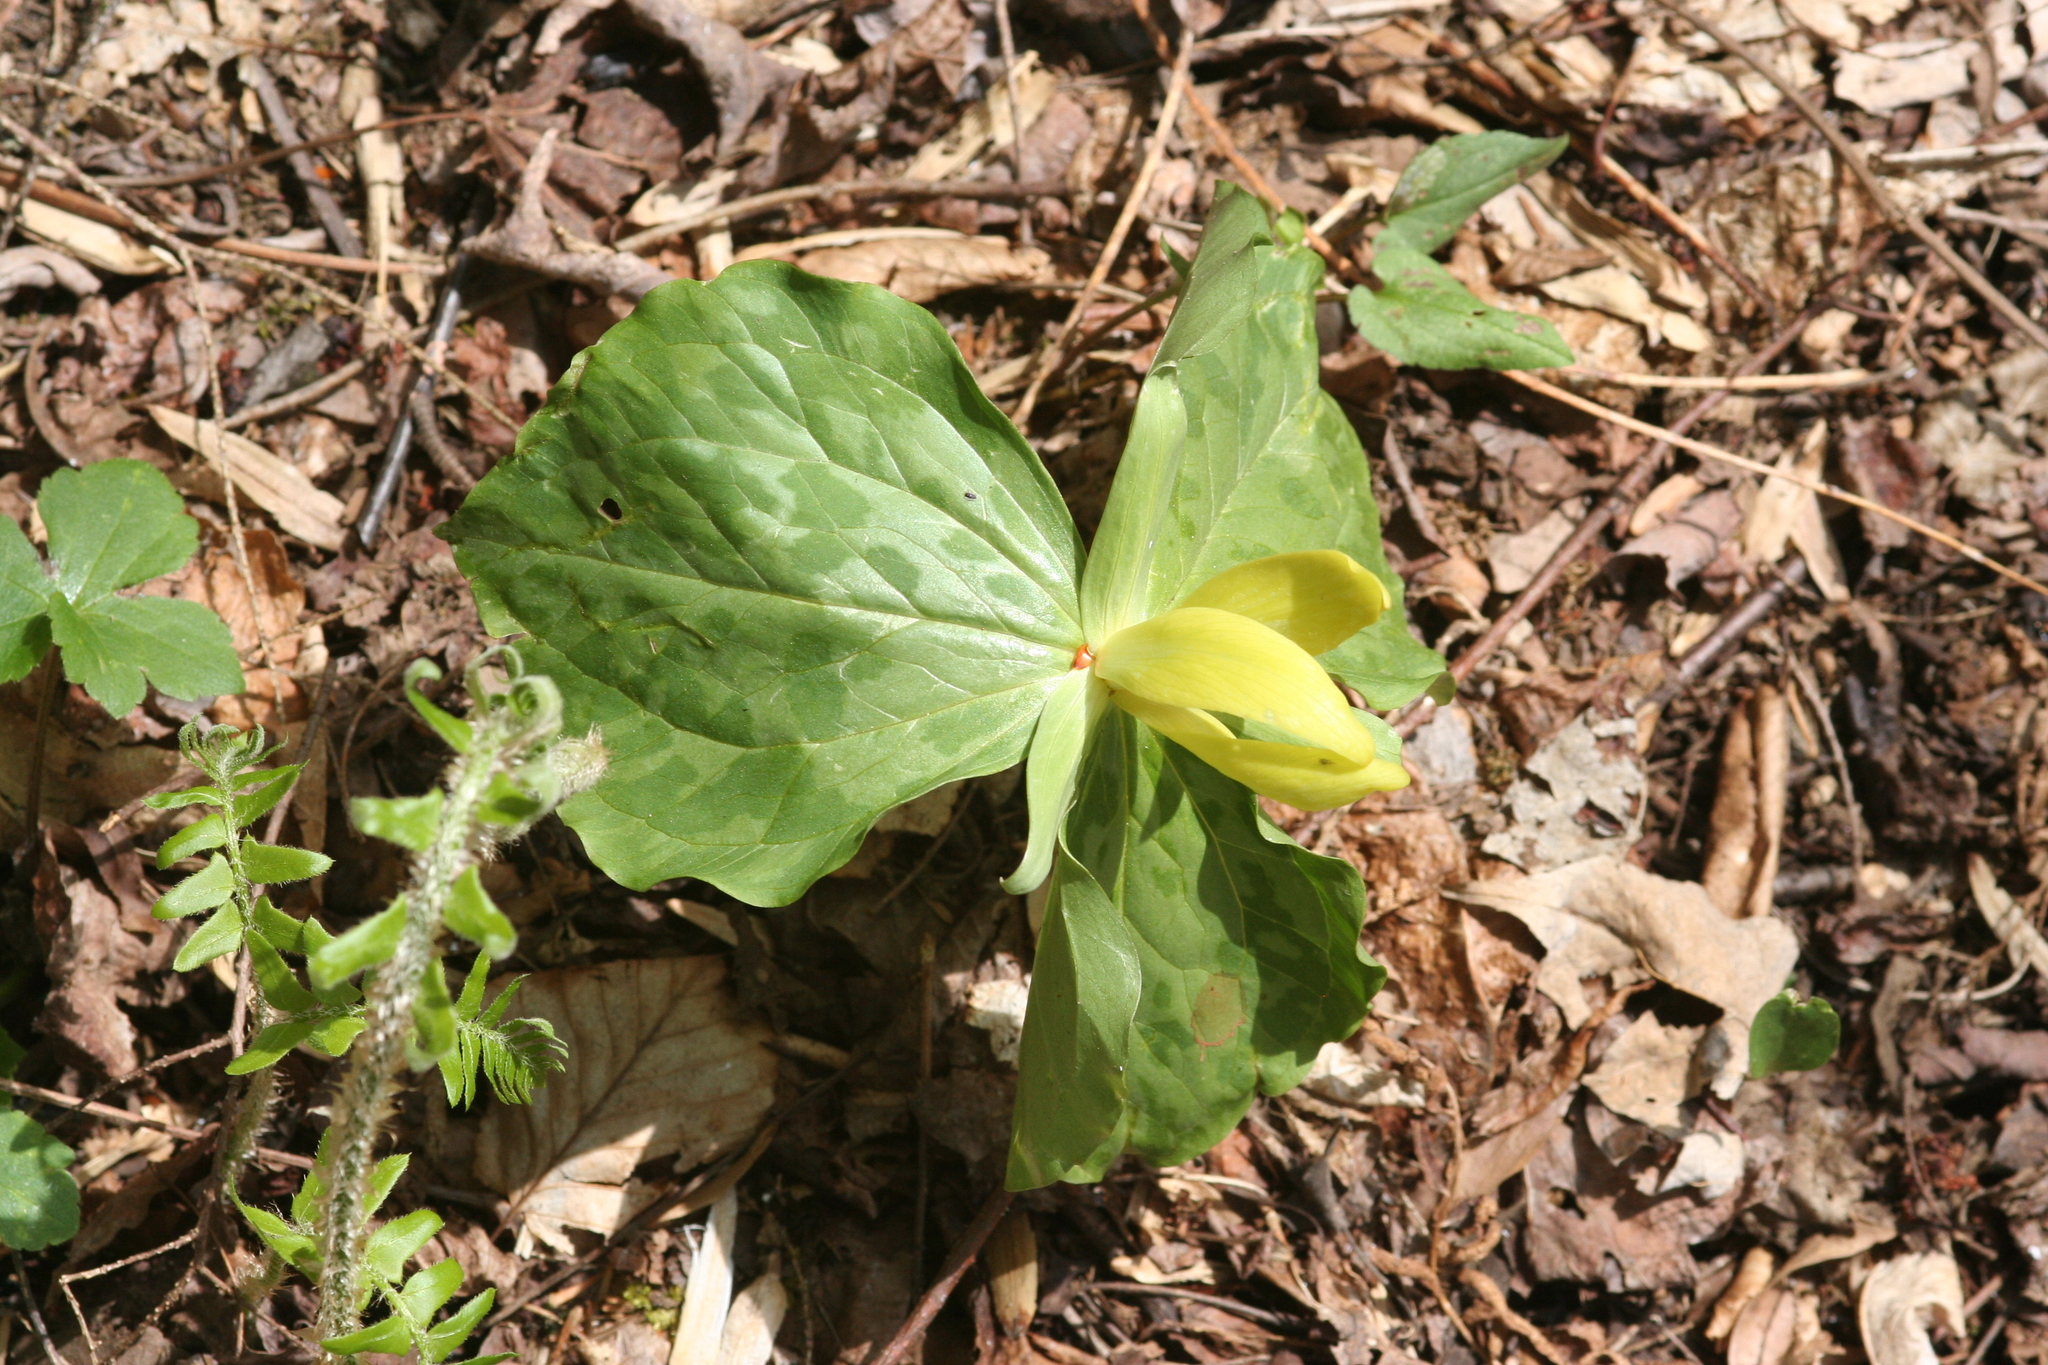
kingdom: Plantae
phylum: Tracheophyta
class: Liliopsida
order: Liliales
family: Melanthiaceae
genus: Trillium
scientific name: Trillium luteum
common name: Wax trillium
